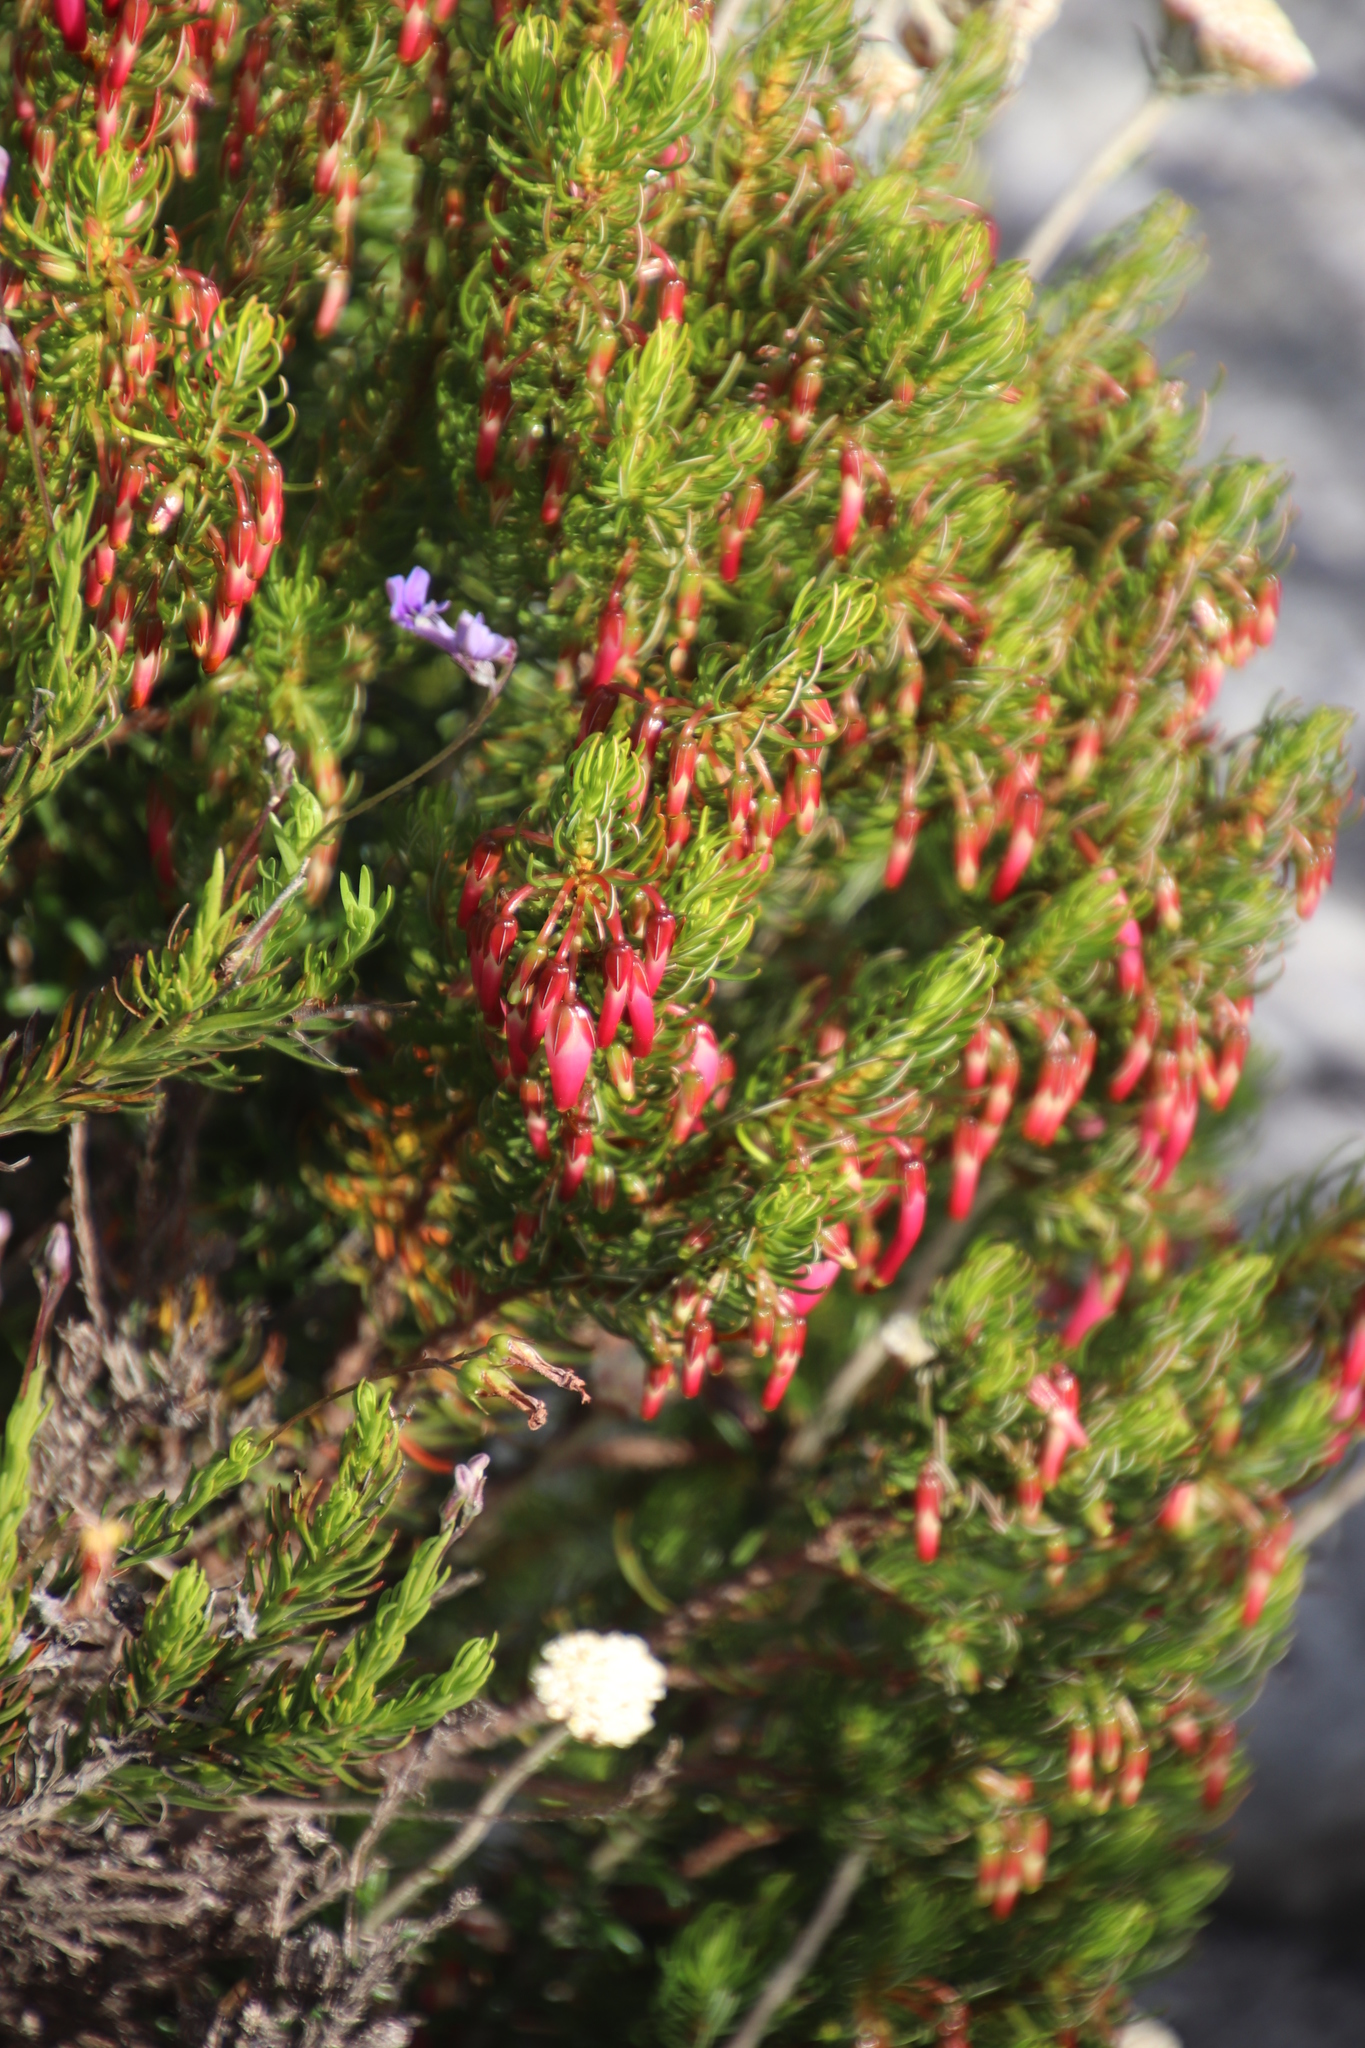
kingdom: Plantae
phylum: Tracheophyta
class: Magnoliopsida
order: Ericales
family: Ericaceae
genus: Erica
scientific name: Erica plukenetii
